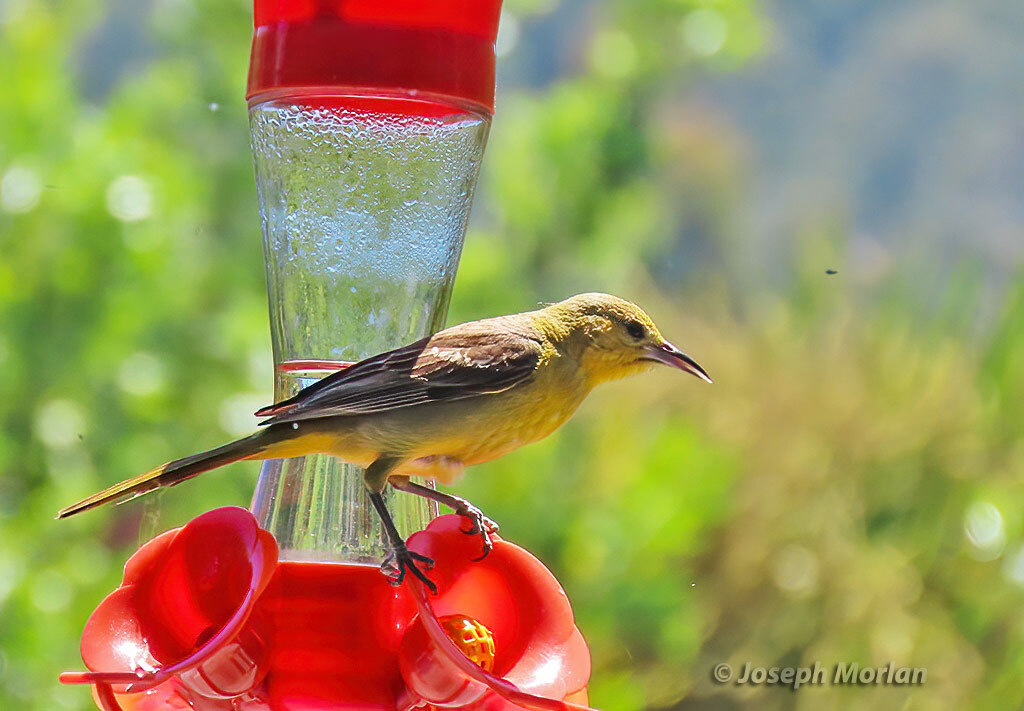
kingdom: Animalia
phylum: Chordata
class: Aves
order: Passeriformes
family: Icteridae
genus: Icterus
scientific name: Icterus cucullatus
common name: Hooded oriole
